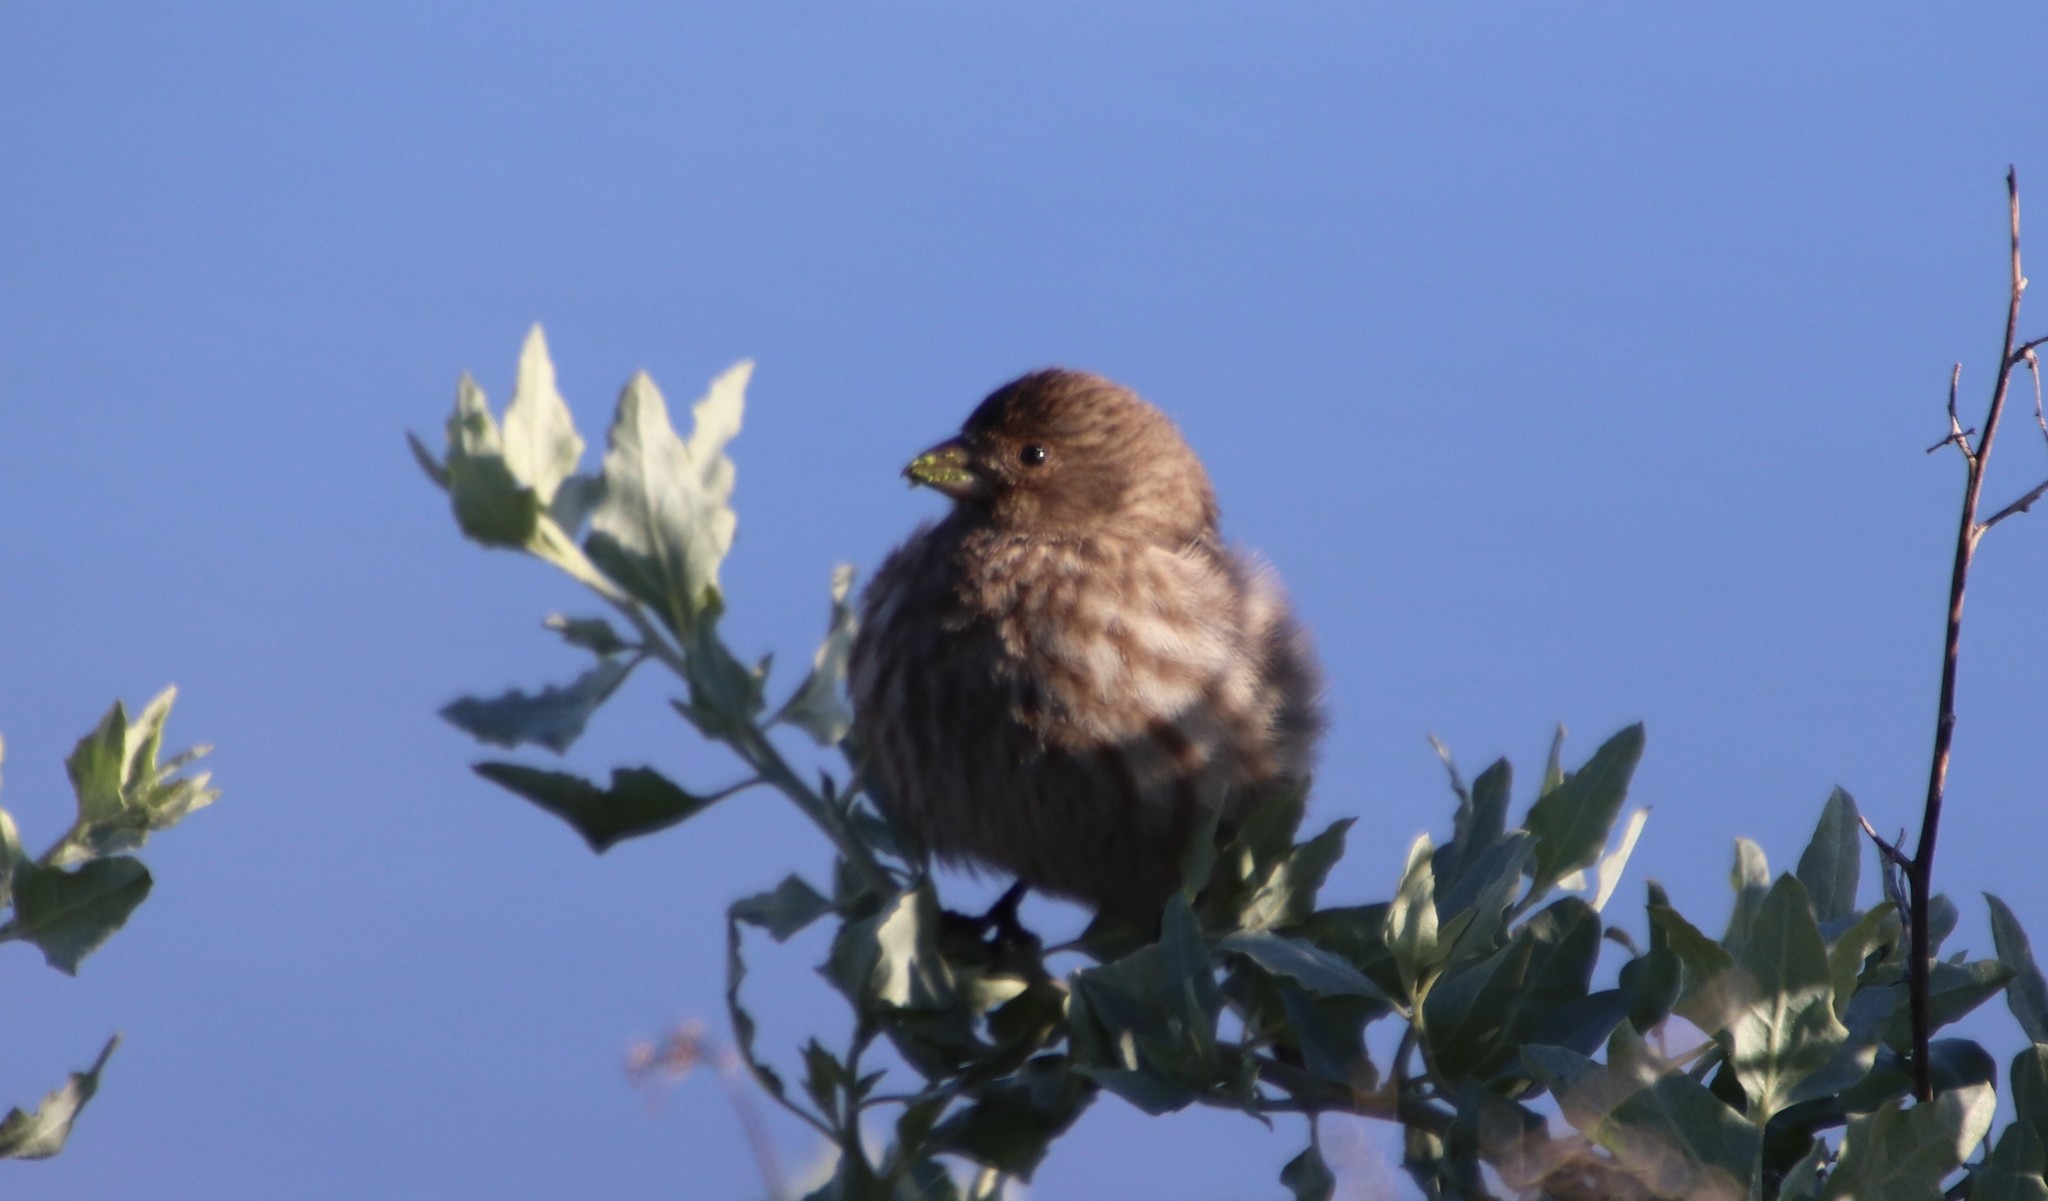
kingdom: Animalia
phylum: Chordata
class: Aves
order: Passeriformes
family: Fringillidae
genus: Haemorhous
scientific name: Haemorhous mexicanus
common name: House finch
